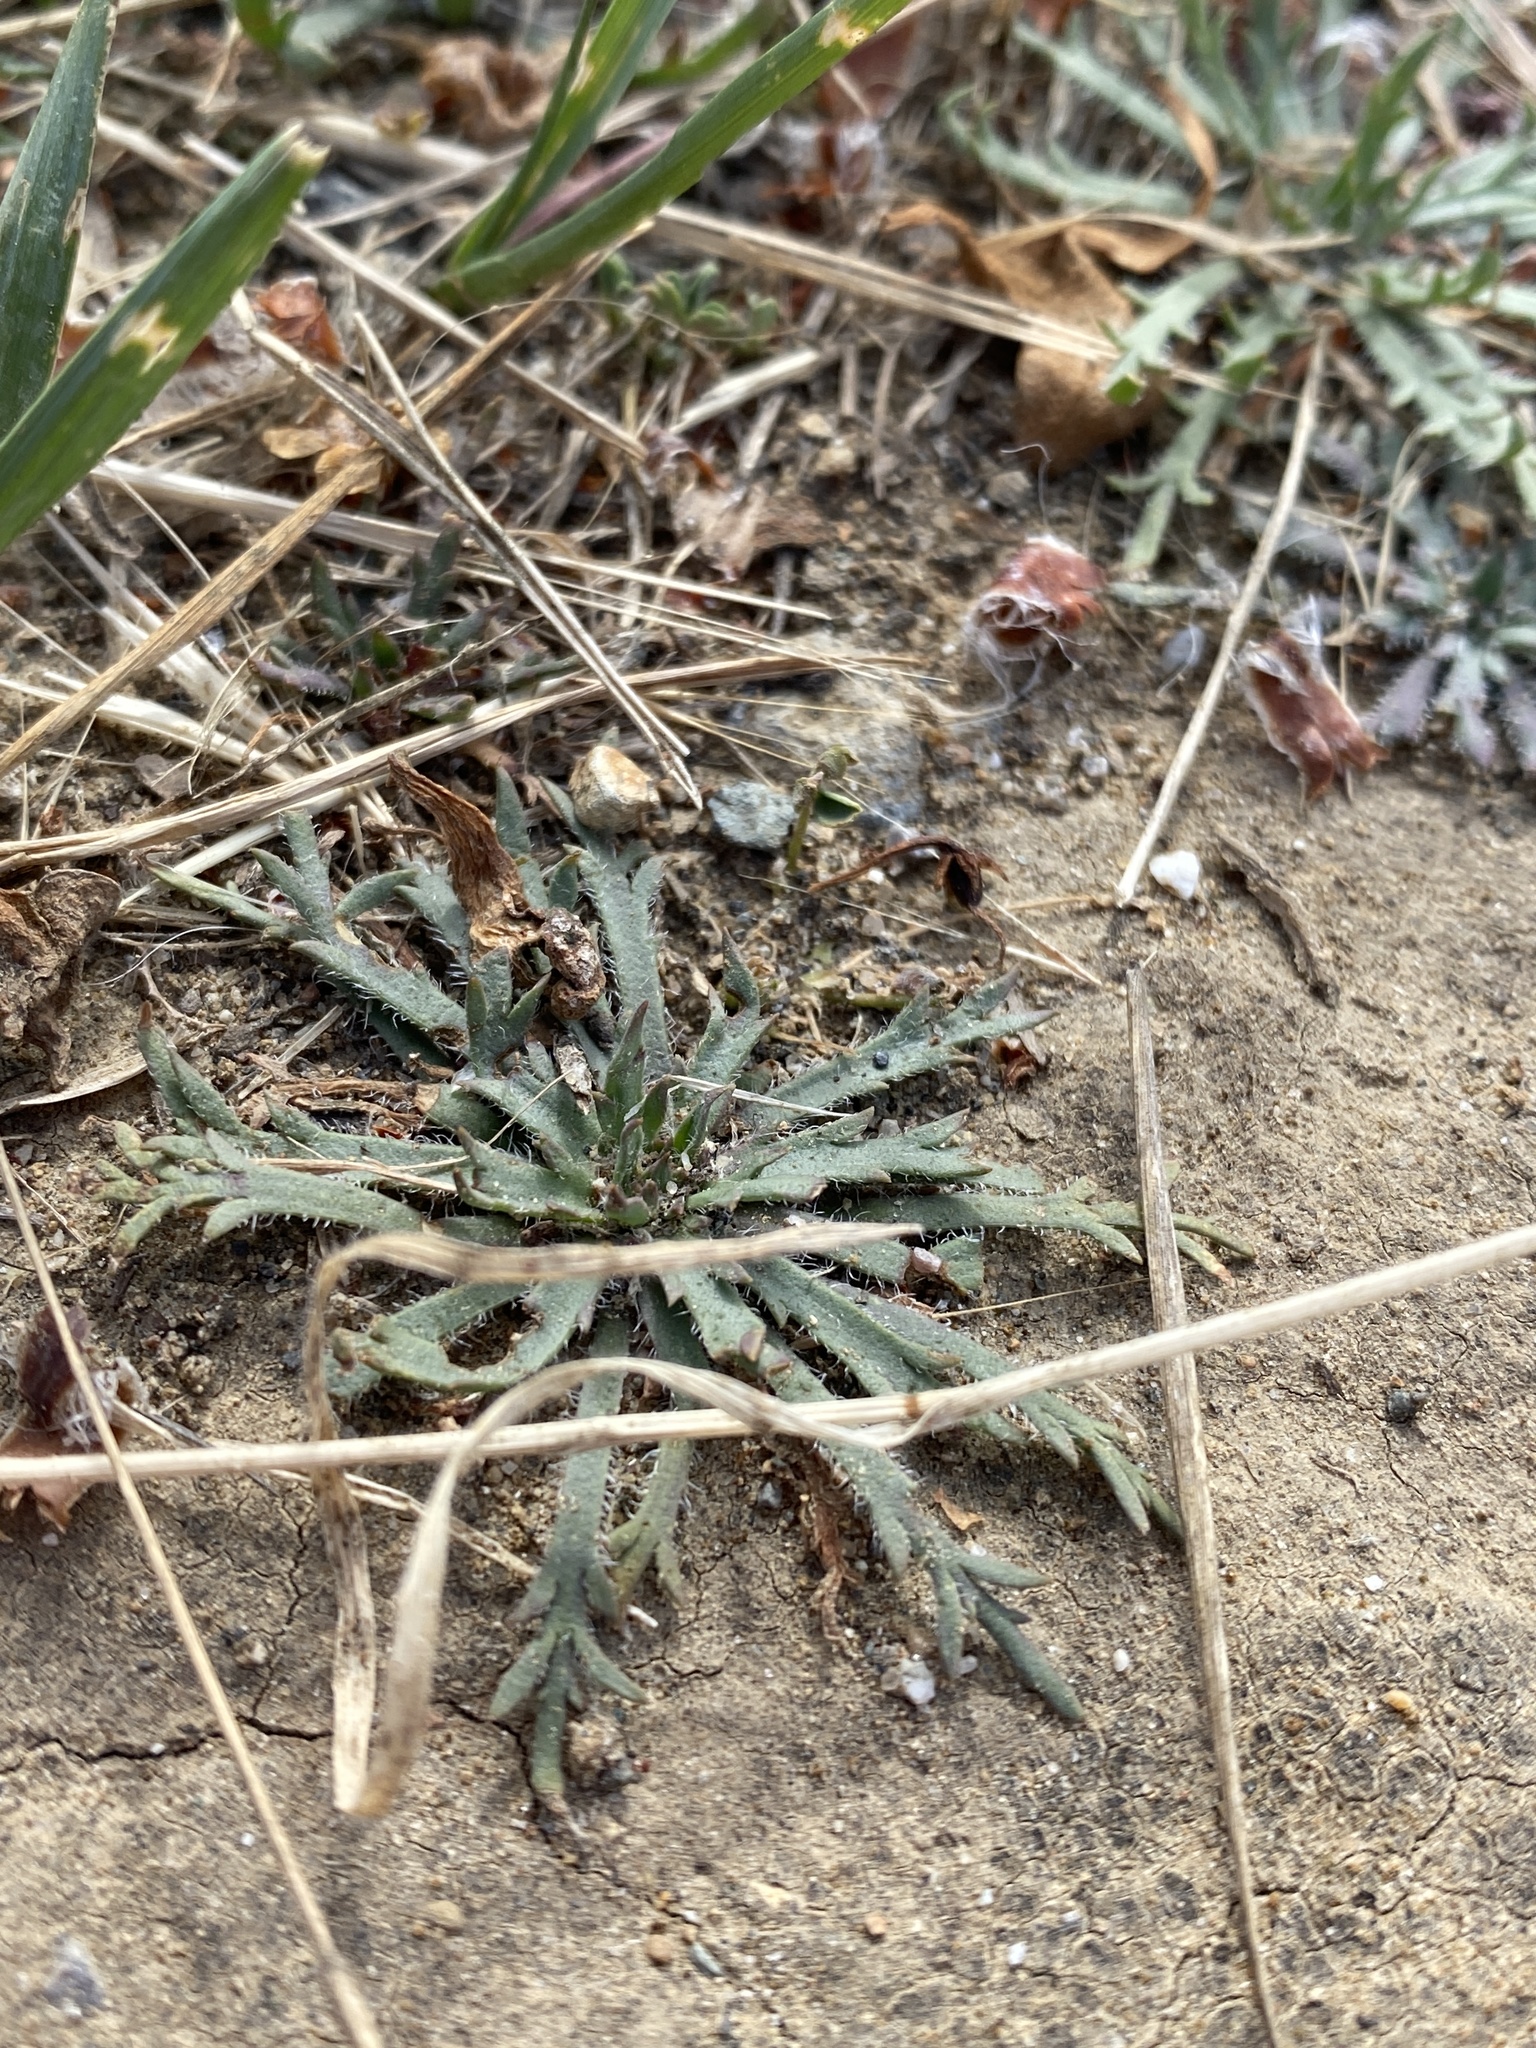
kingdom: Plantae
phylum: Tracheophyta
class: Magnoliopsida
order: Lamiales
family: Plantaginaceae
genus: Plantago
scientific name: Plantago coronopus
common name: Buck's-horn plantain
